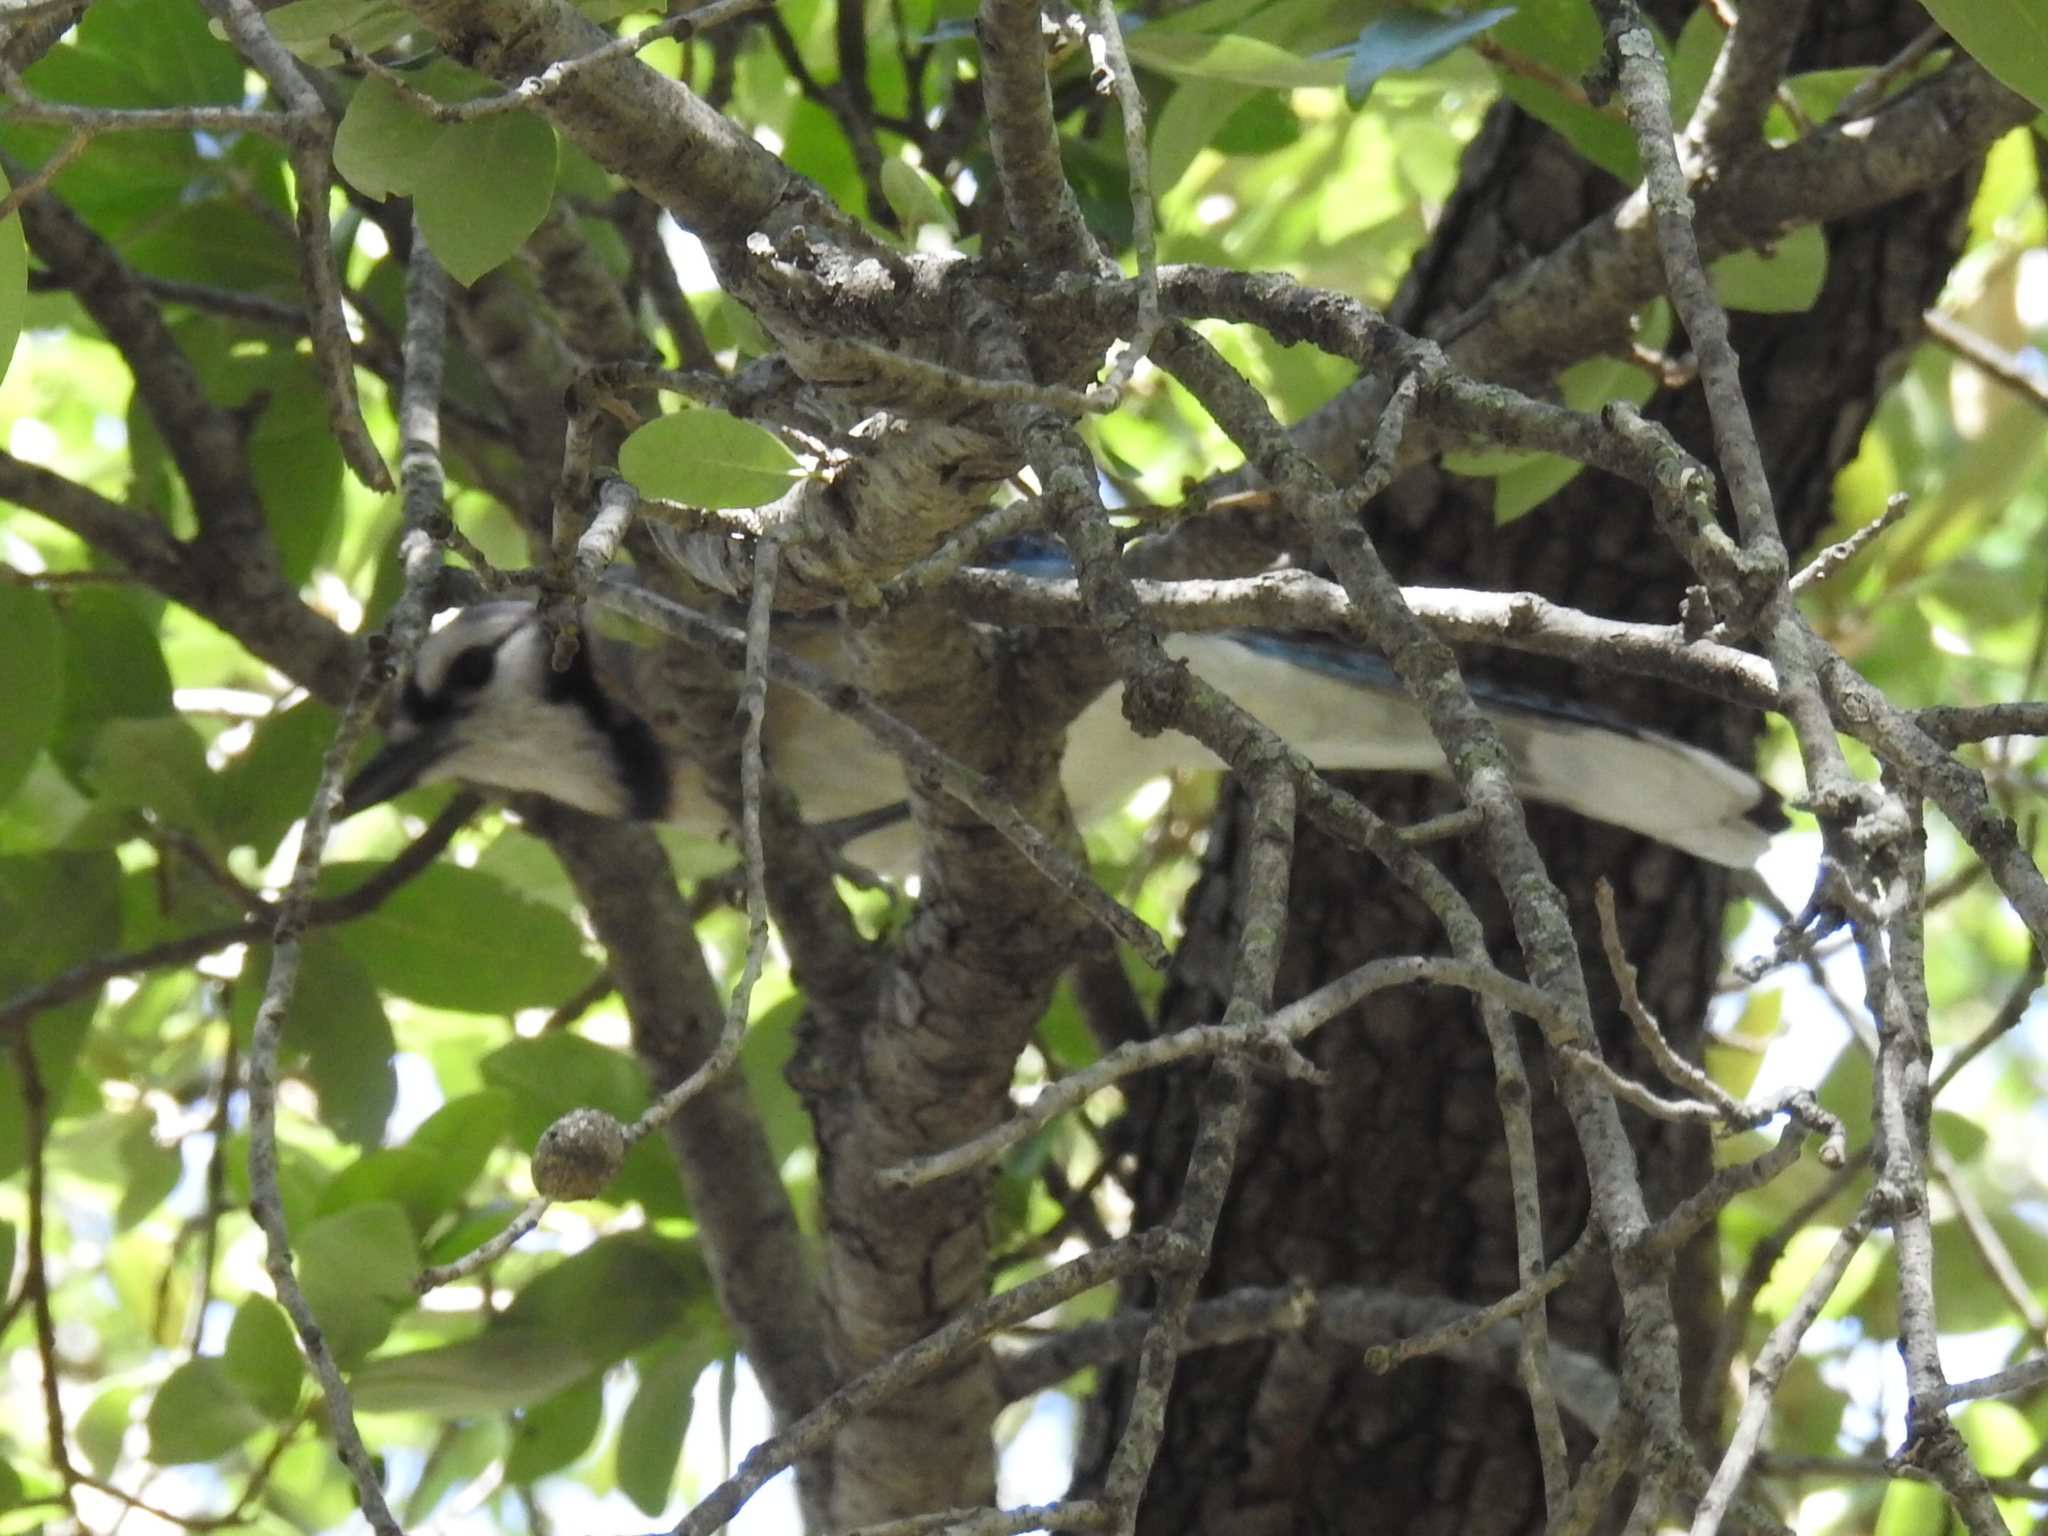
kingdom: Animalia
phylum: Chordata
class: Aves
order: Passeriformes
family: Corvidae
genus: Cyanocitta
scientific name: Cyanocitta cristata
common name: Blue jay
